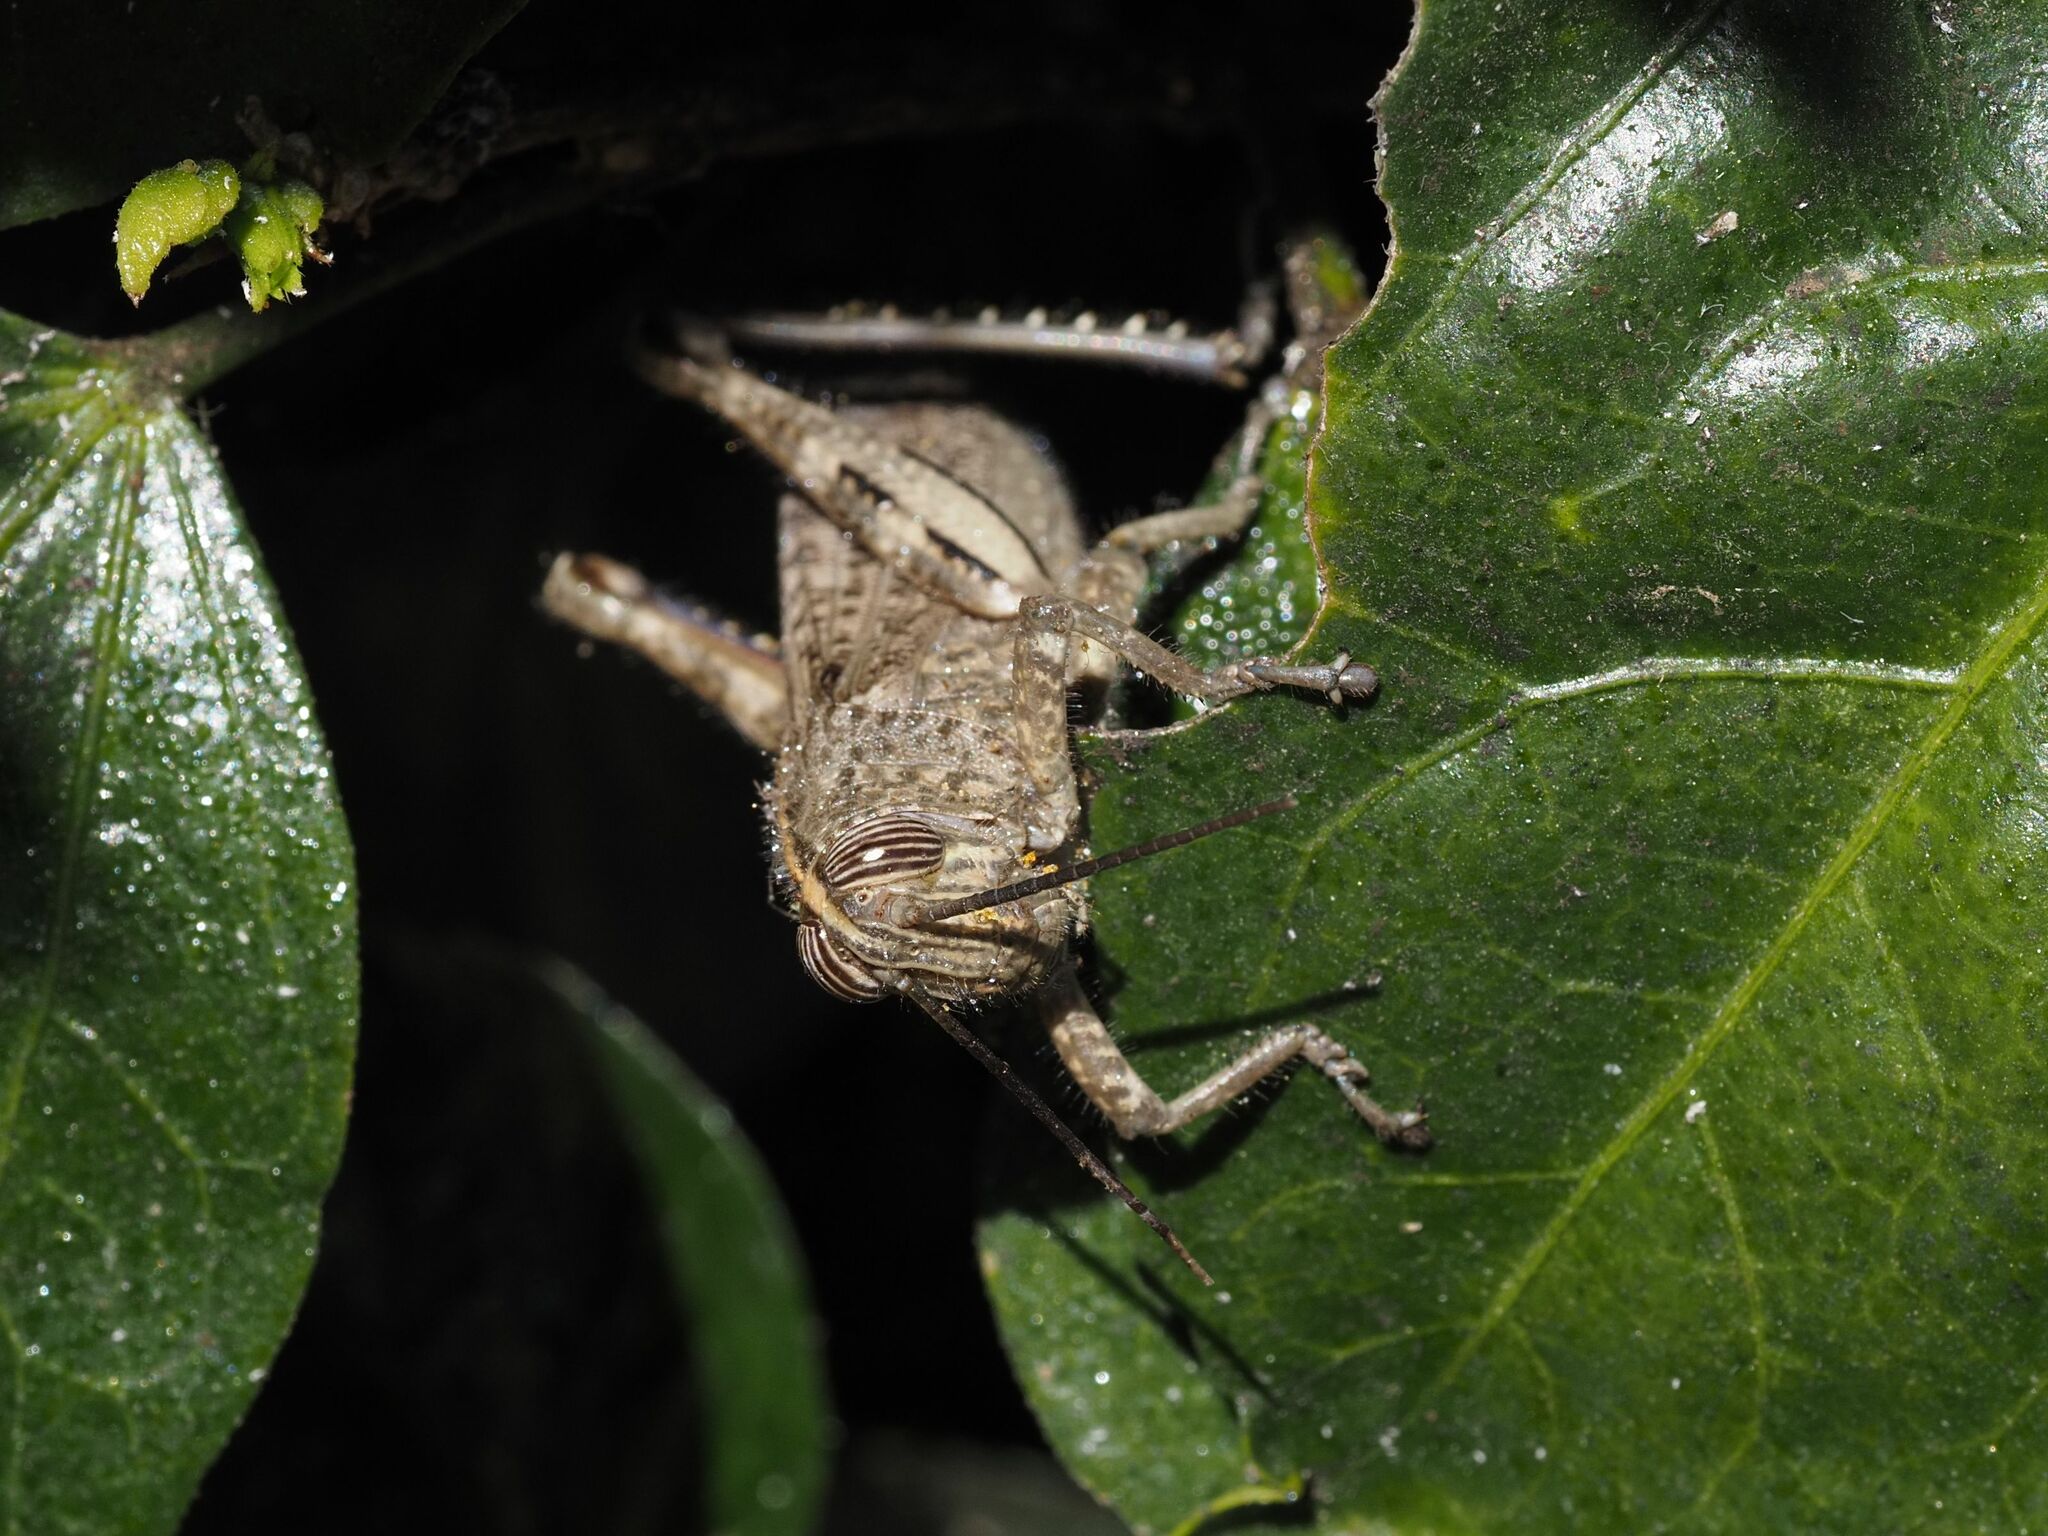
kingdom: Animalia
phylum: Arthropoda
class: Insecta
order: Orthoptera
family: Acrididae
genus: Anacridium
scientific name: Anacridium aegyptium
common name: Egyptian grasshopper
